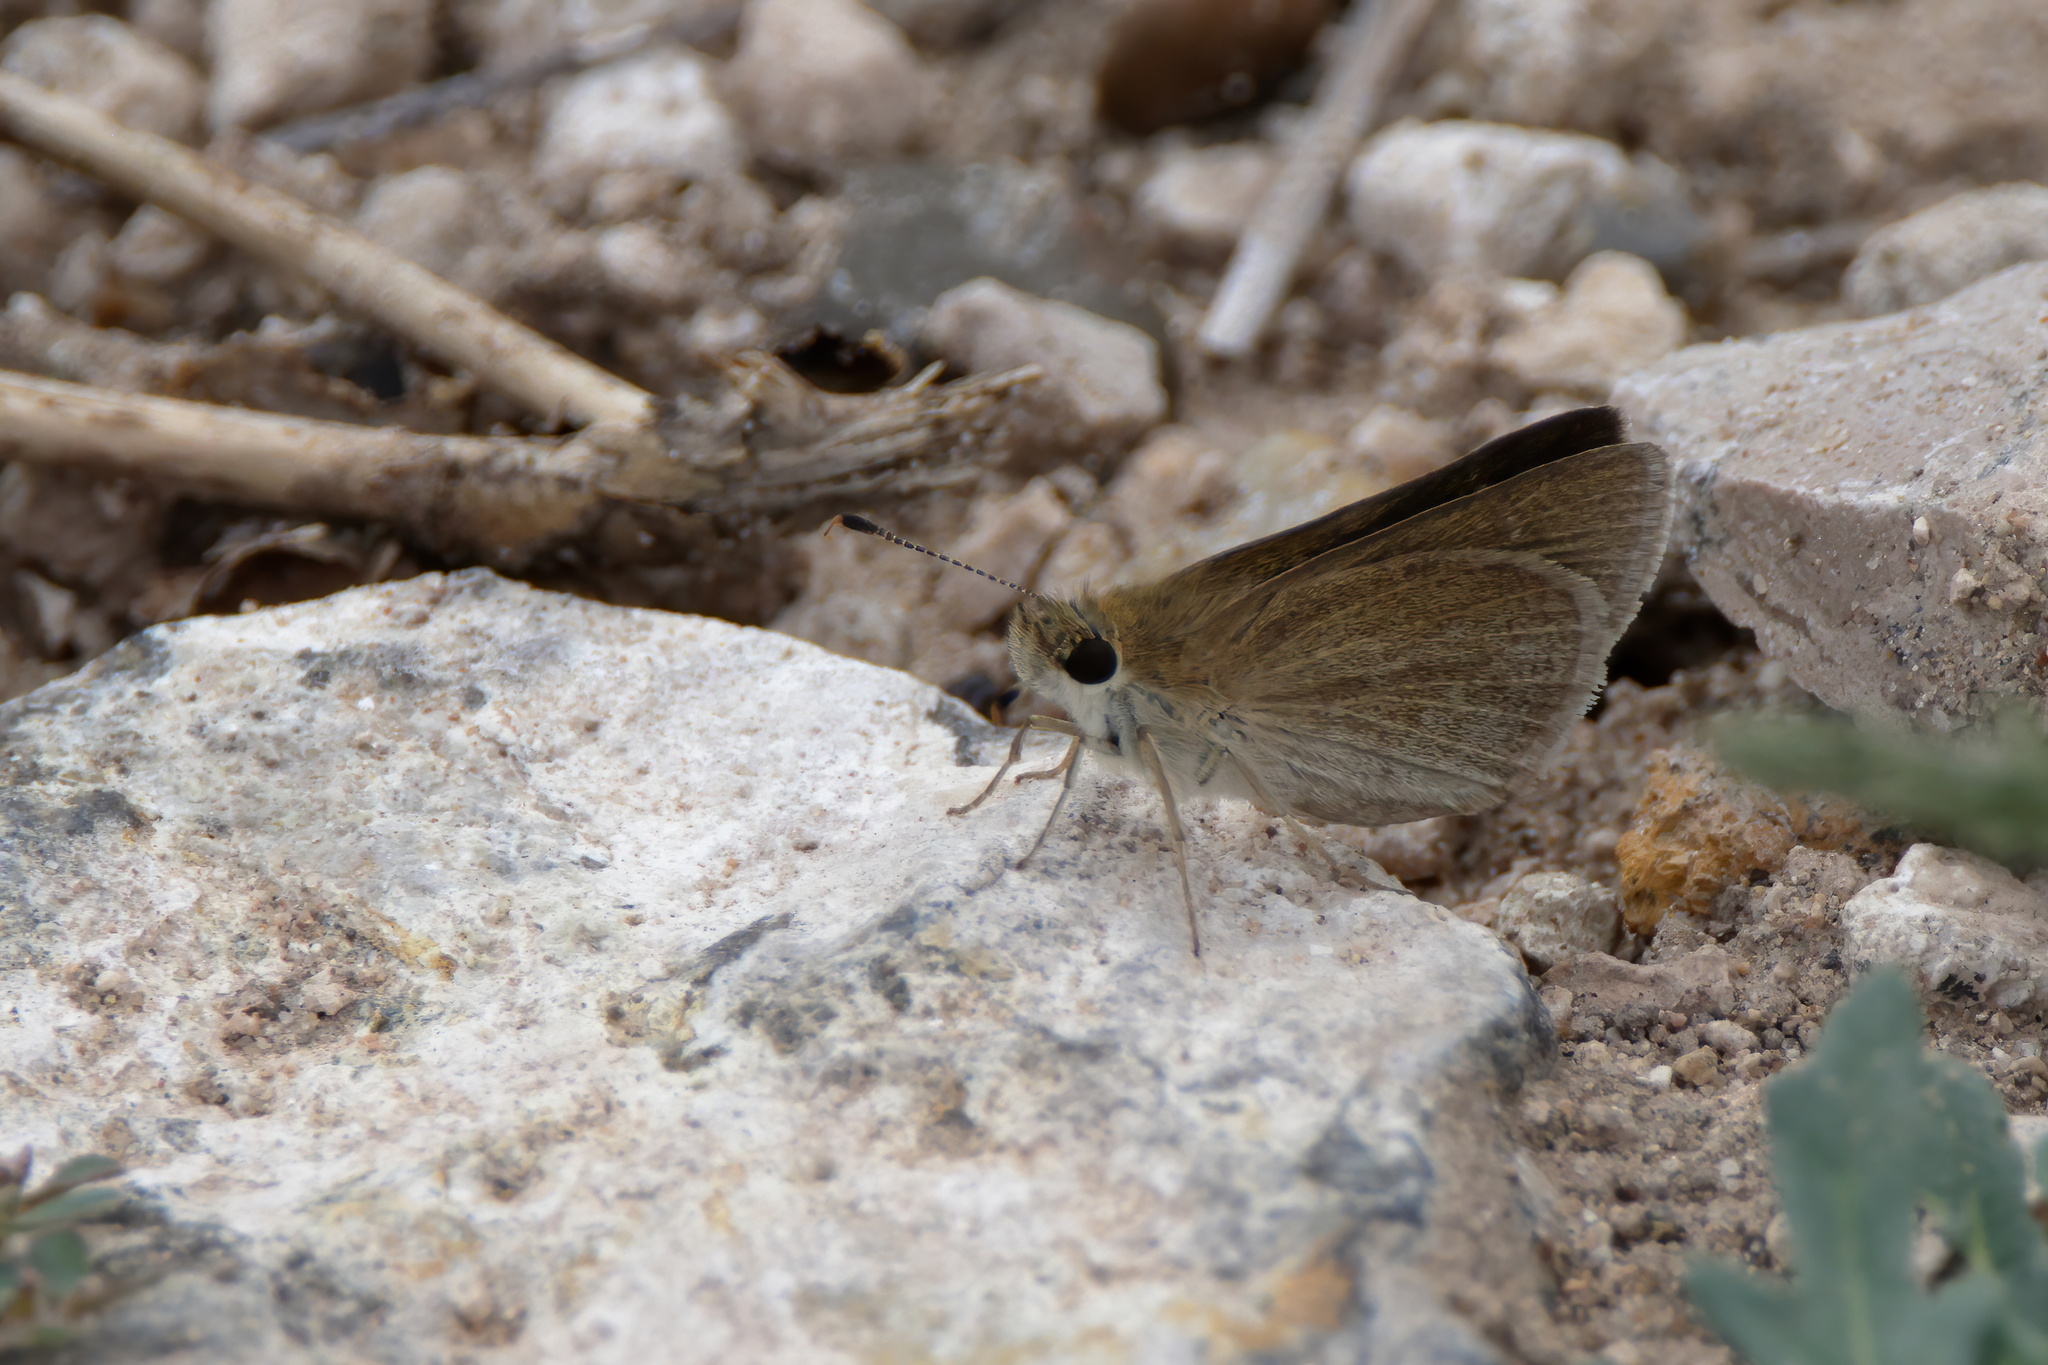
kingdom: Animalia
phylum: Arthropoda
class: Insecta
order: Lepidoptera
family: Hesperiidae
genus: Nastra
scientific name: Nastra julia
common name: Julia's skipper
